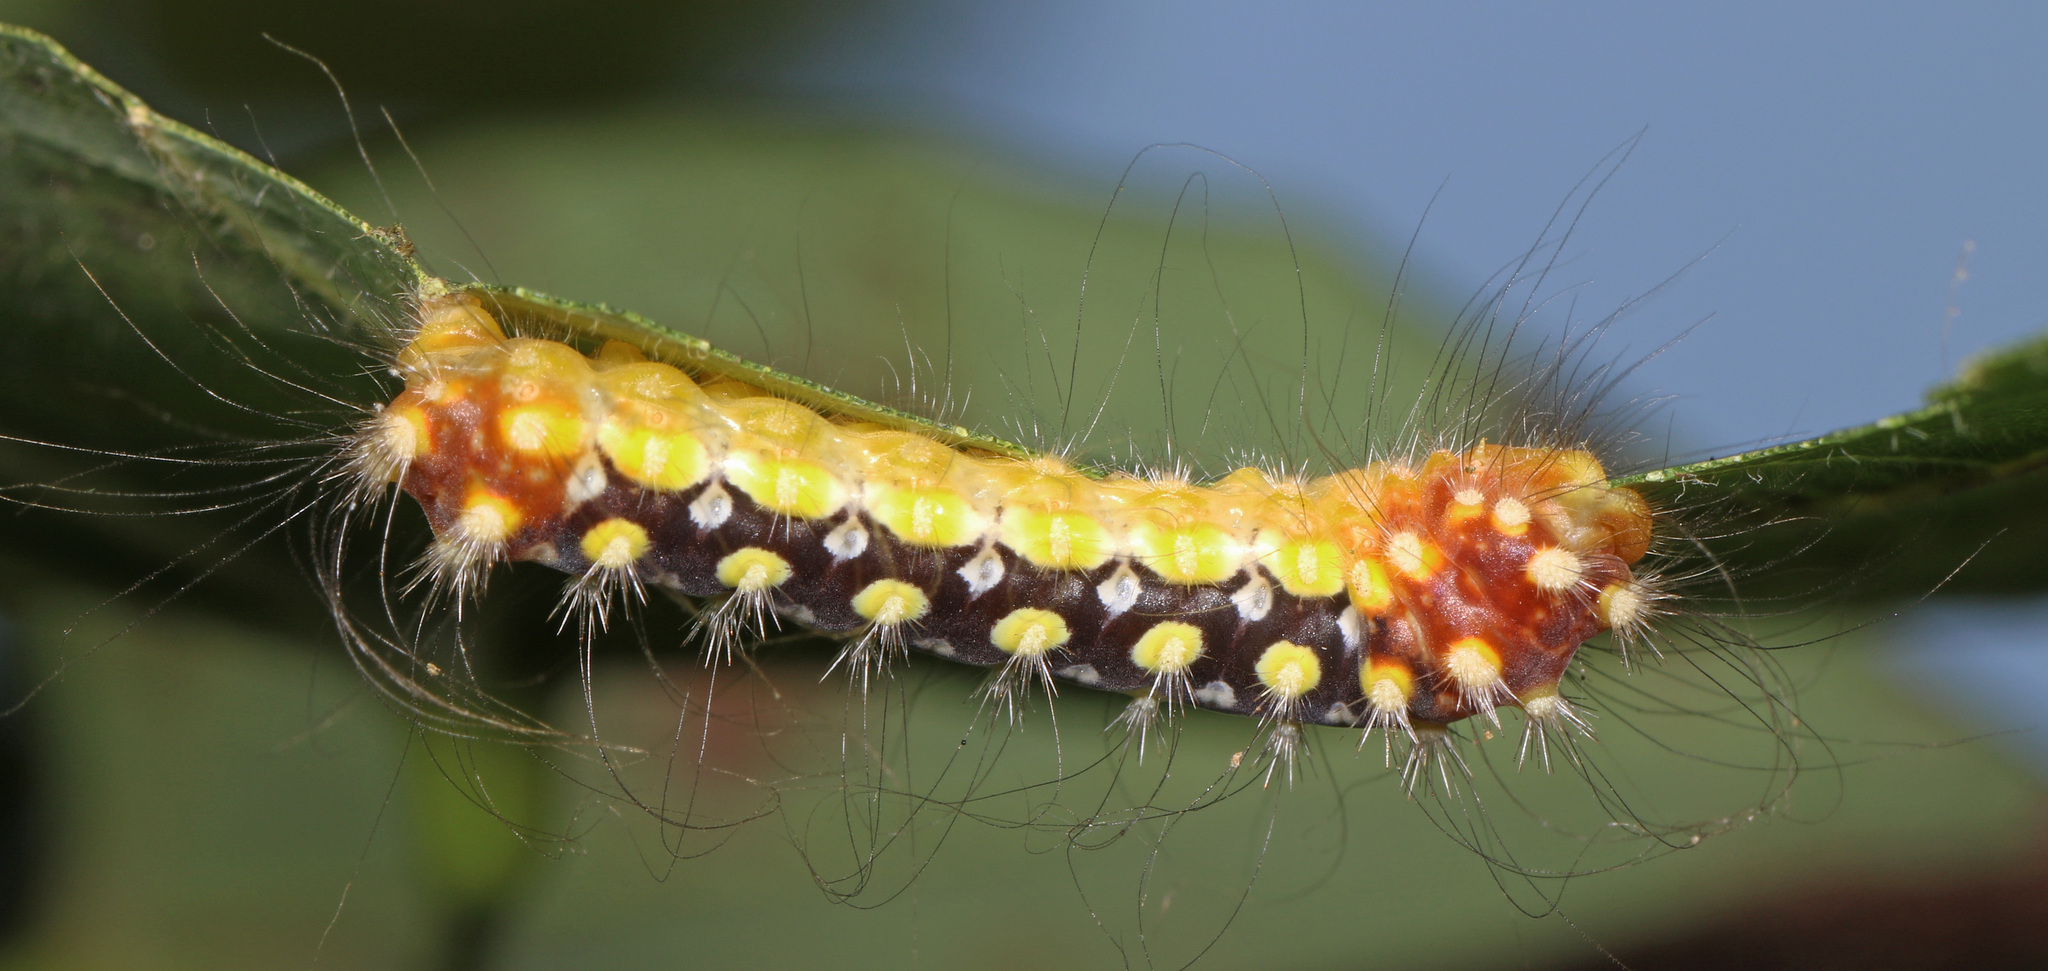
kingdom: Animalia
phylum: Arthropoda
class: Insecta
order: Lepidoptera
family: Megalopygidae
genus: Norape
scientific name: Norape cretata
